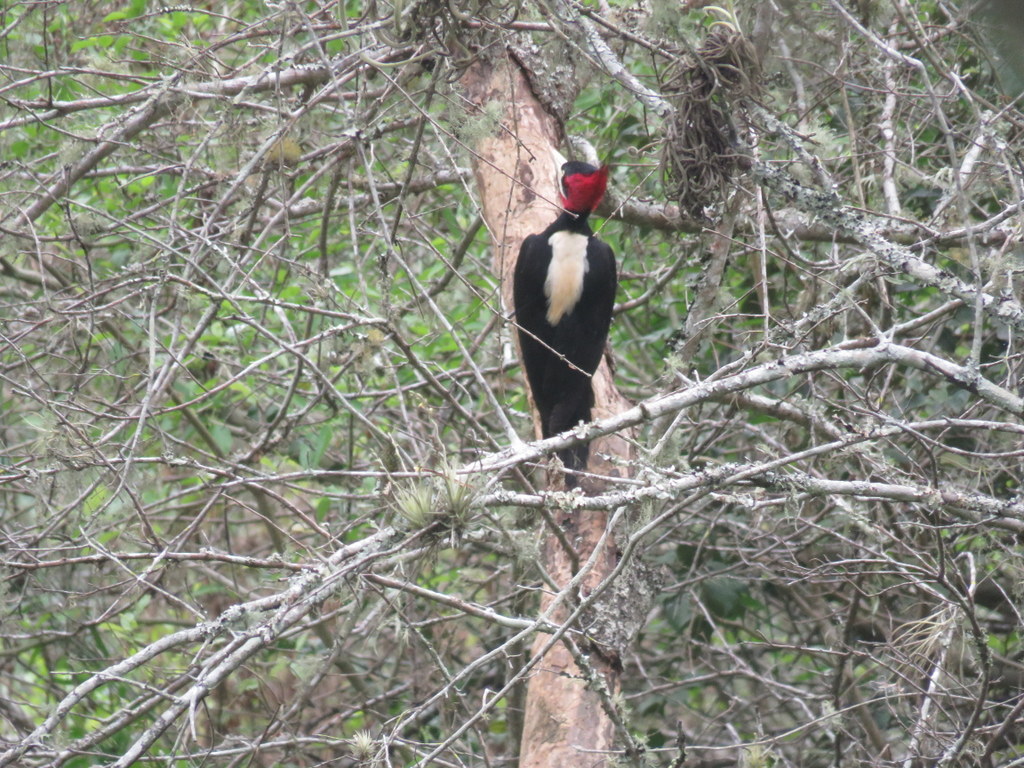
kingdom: Animalia
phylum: Chordata
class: Aves
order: Piciformes
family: Picidae
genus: Campephilus
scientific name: Campephilus leucopogon
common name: Cream-backed woodpecker
